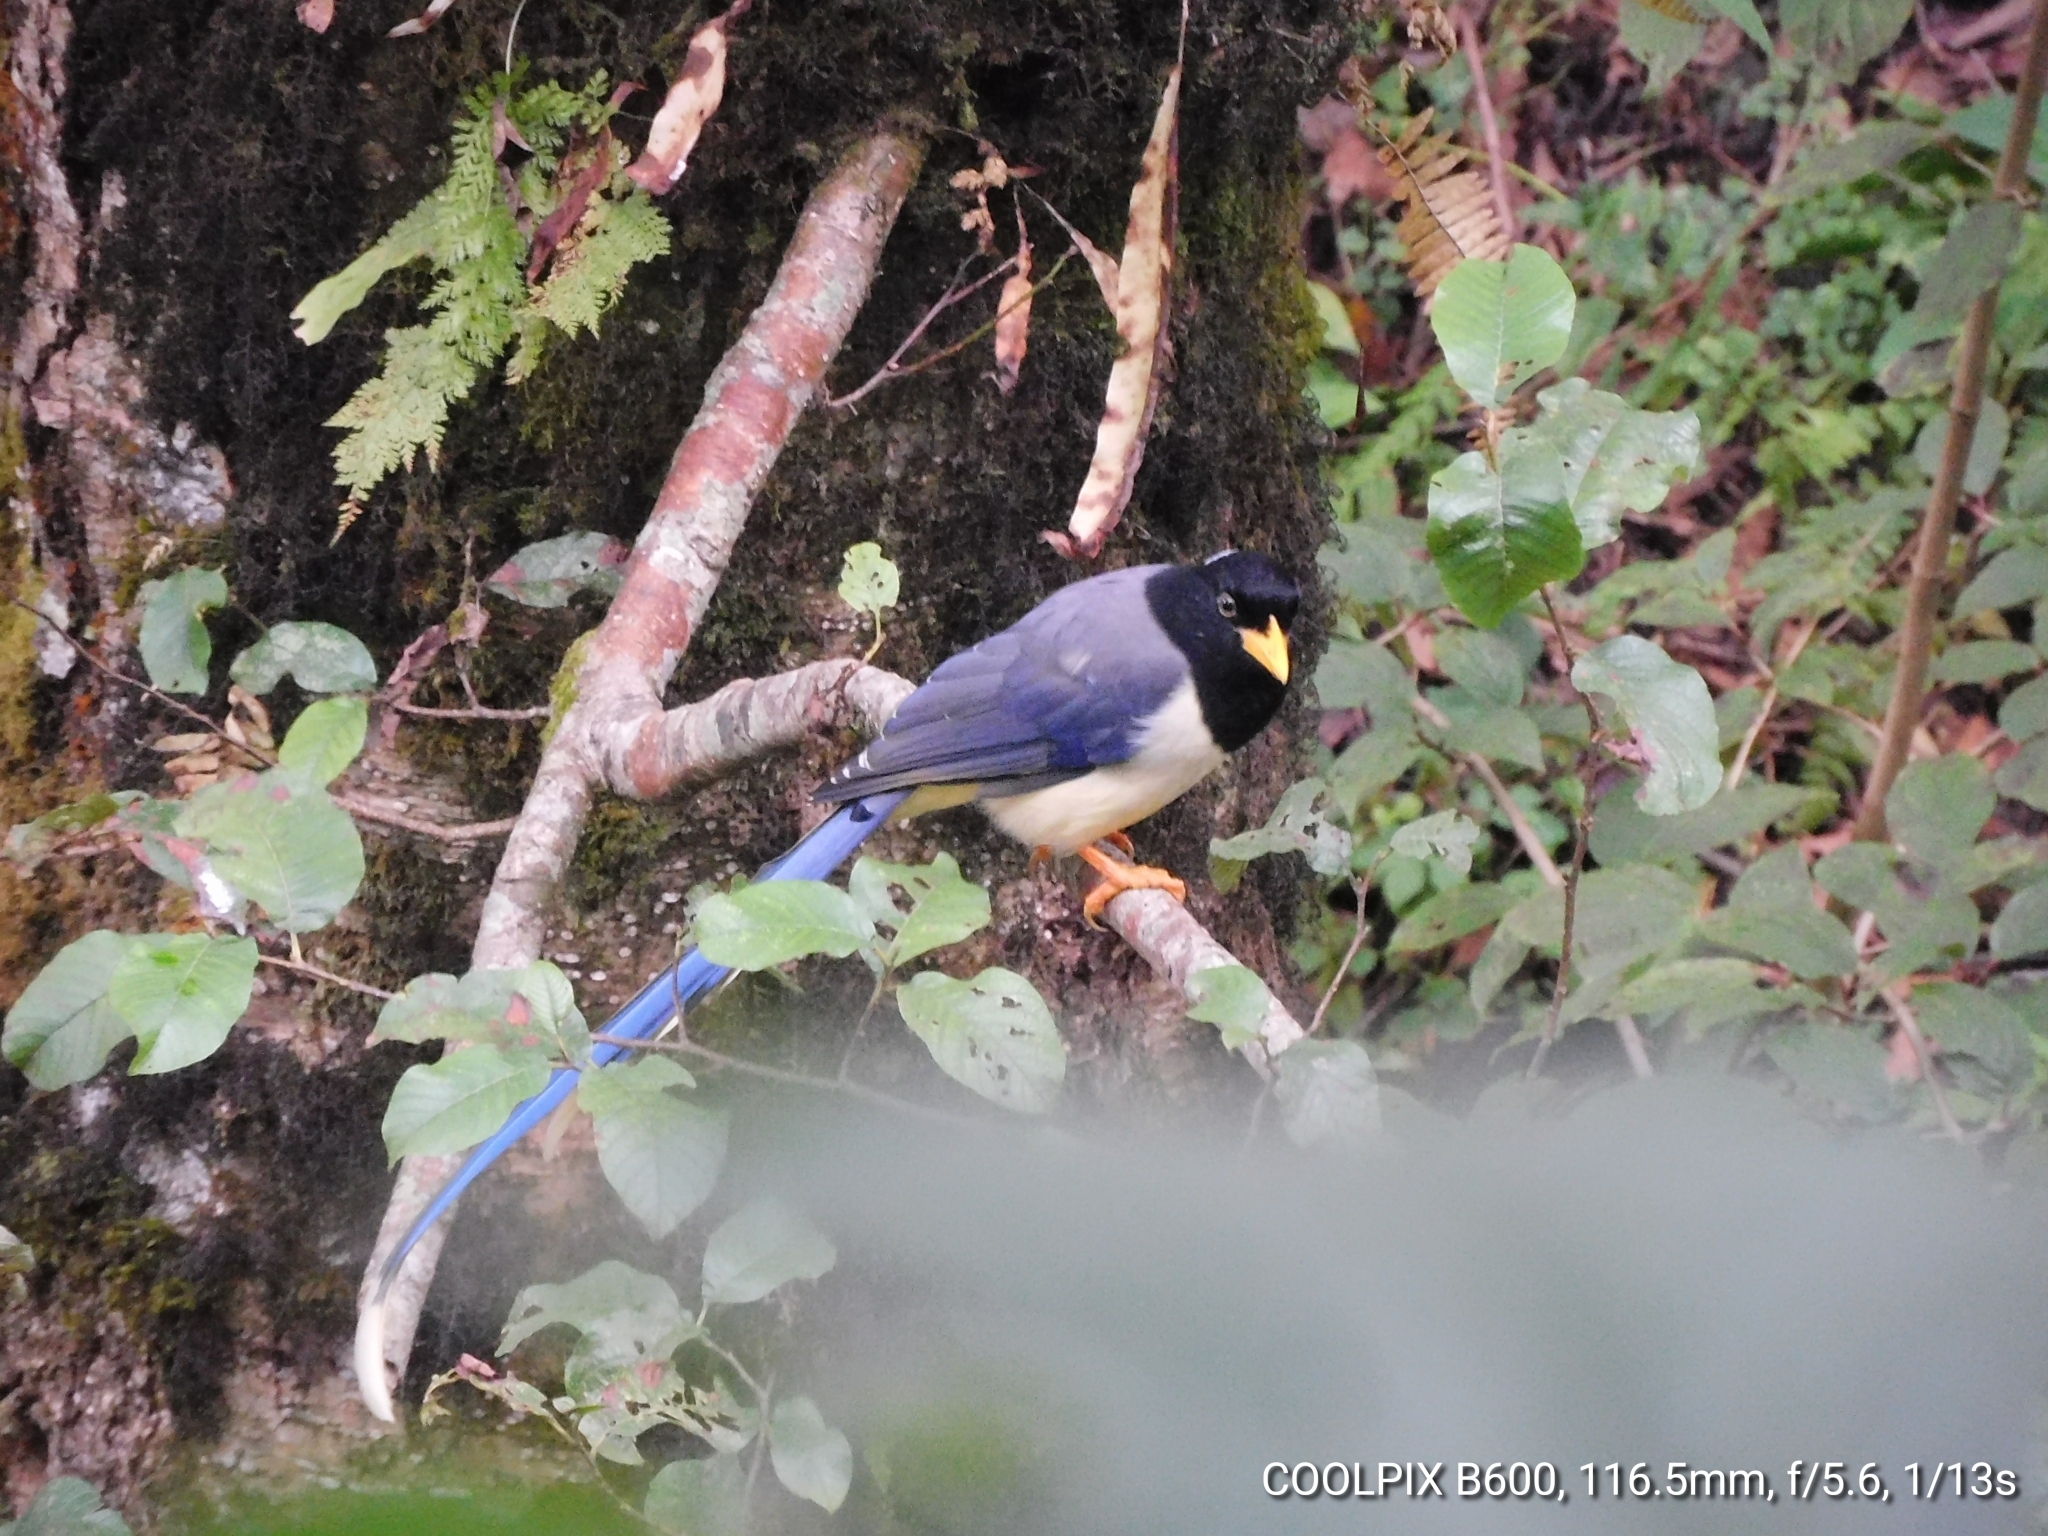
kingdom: Animalia
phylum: Chordata
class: Aves
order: Passeriformes
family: Corvidae
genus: Urocissa
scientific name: Urocissa flavirostris
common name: Yellow-billed blue magpie
